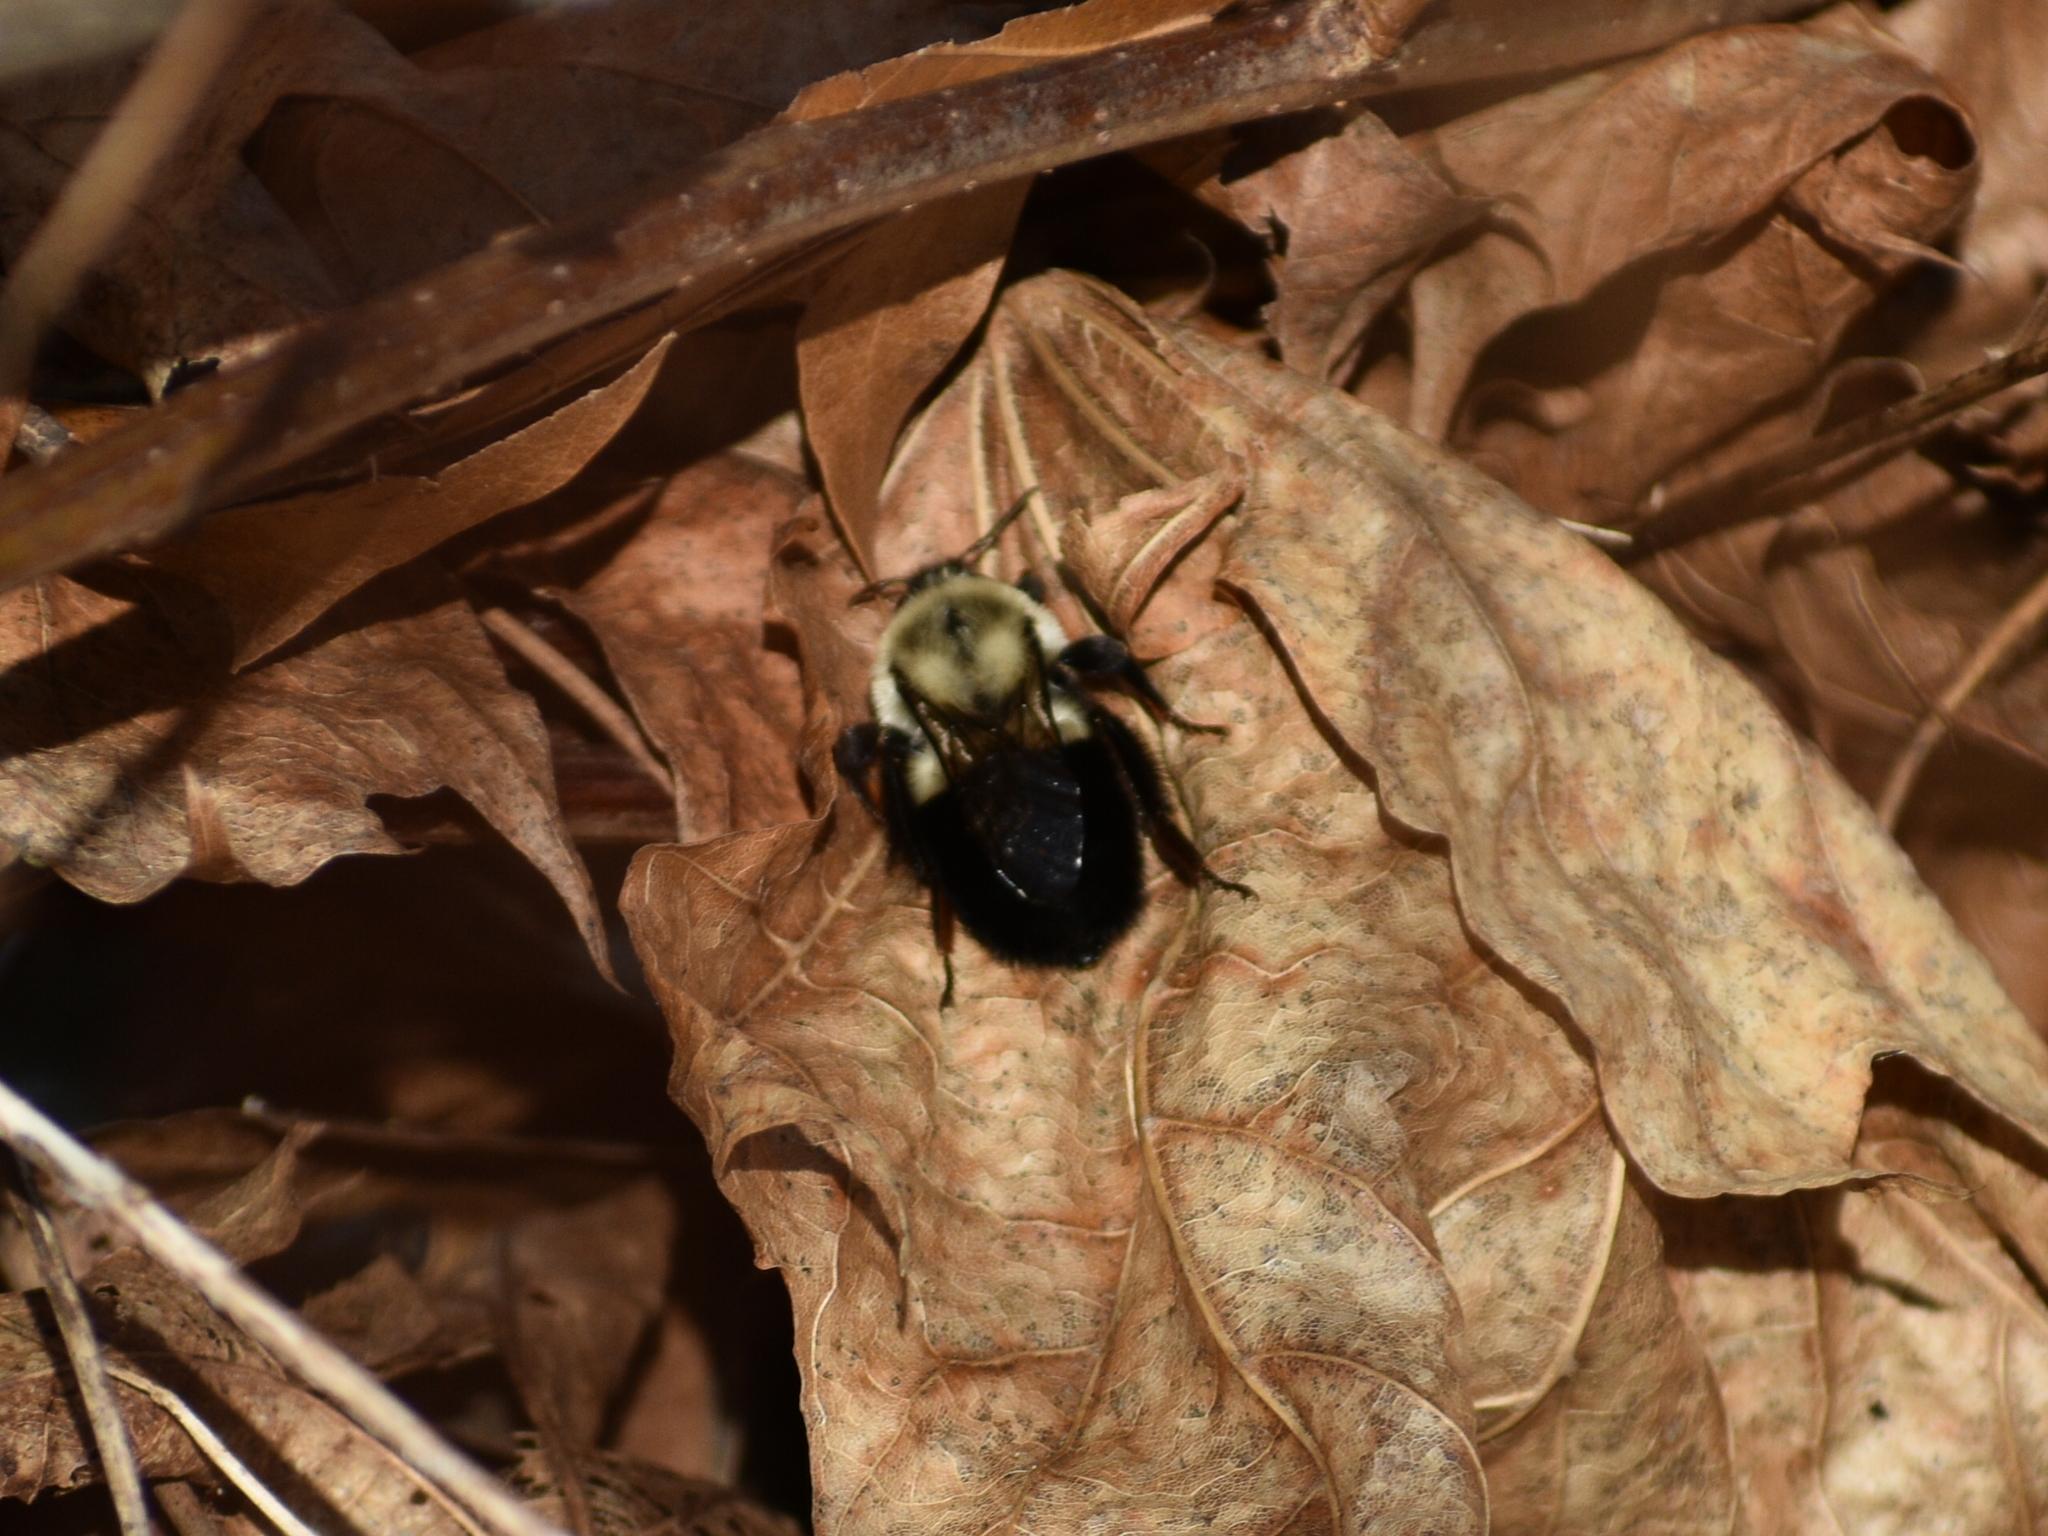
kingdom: Animalia
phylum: Arthropoda
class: Insecta
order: Hymenoptera
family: Apidae
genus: Bombus
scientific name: Bombus impatiens
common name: Common eastern bumble bee
